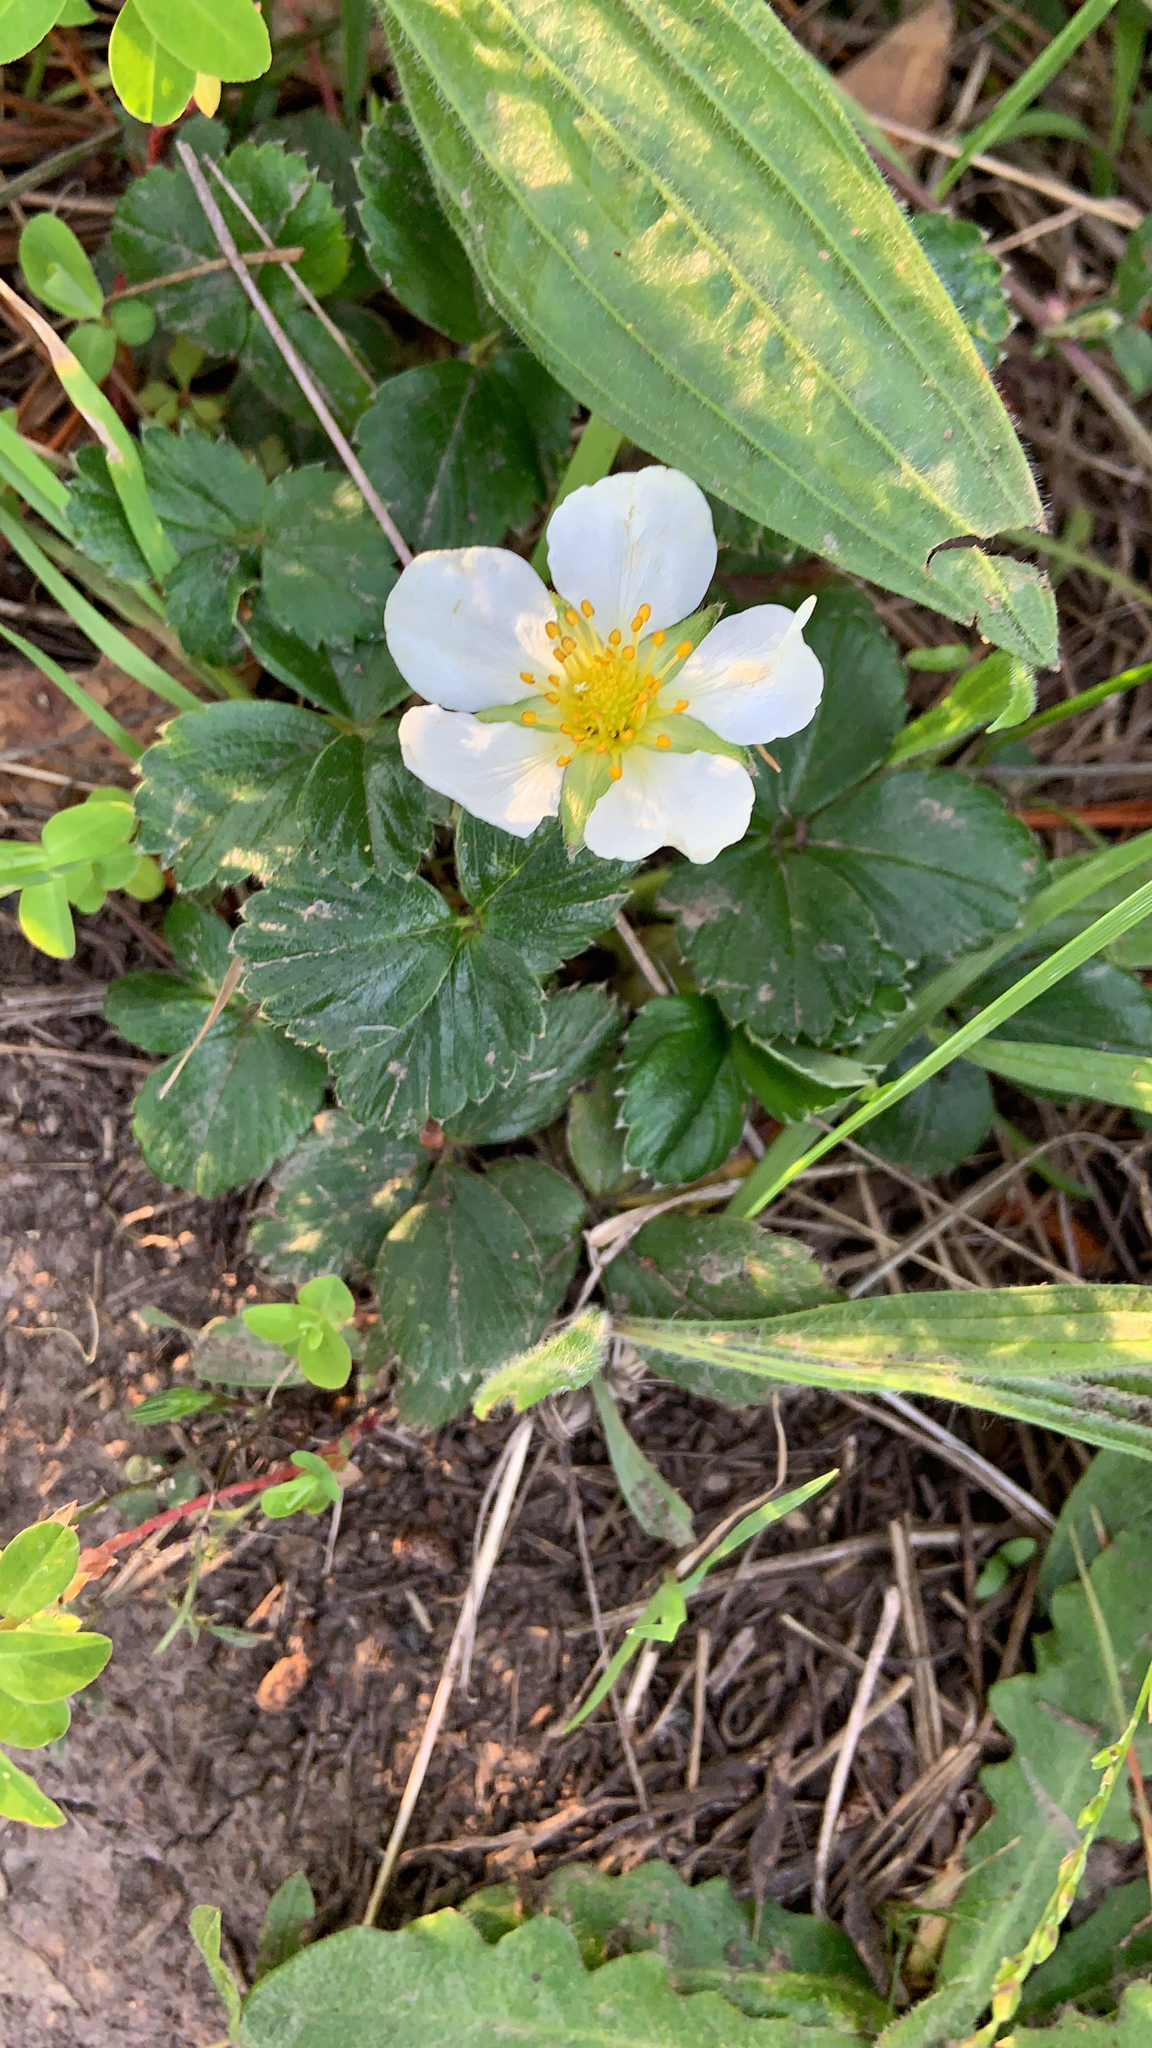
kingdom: Plantae
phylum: Tracheophyta
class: Magnoliopsida
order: Rosales
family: Rosaceae
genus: Fragaria
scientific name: Fragaria chiloensis
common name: Beach strawberry
